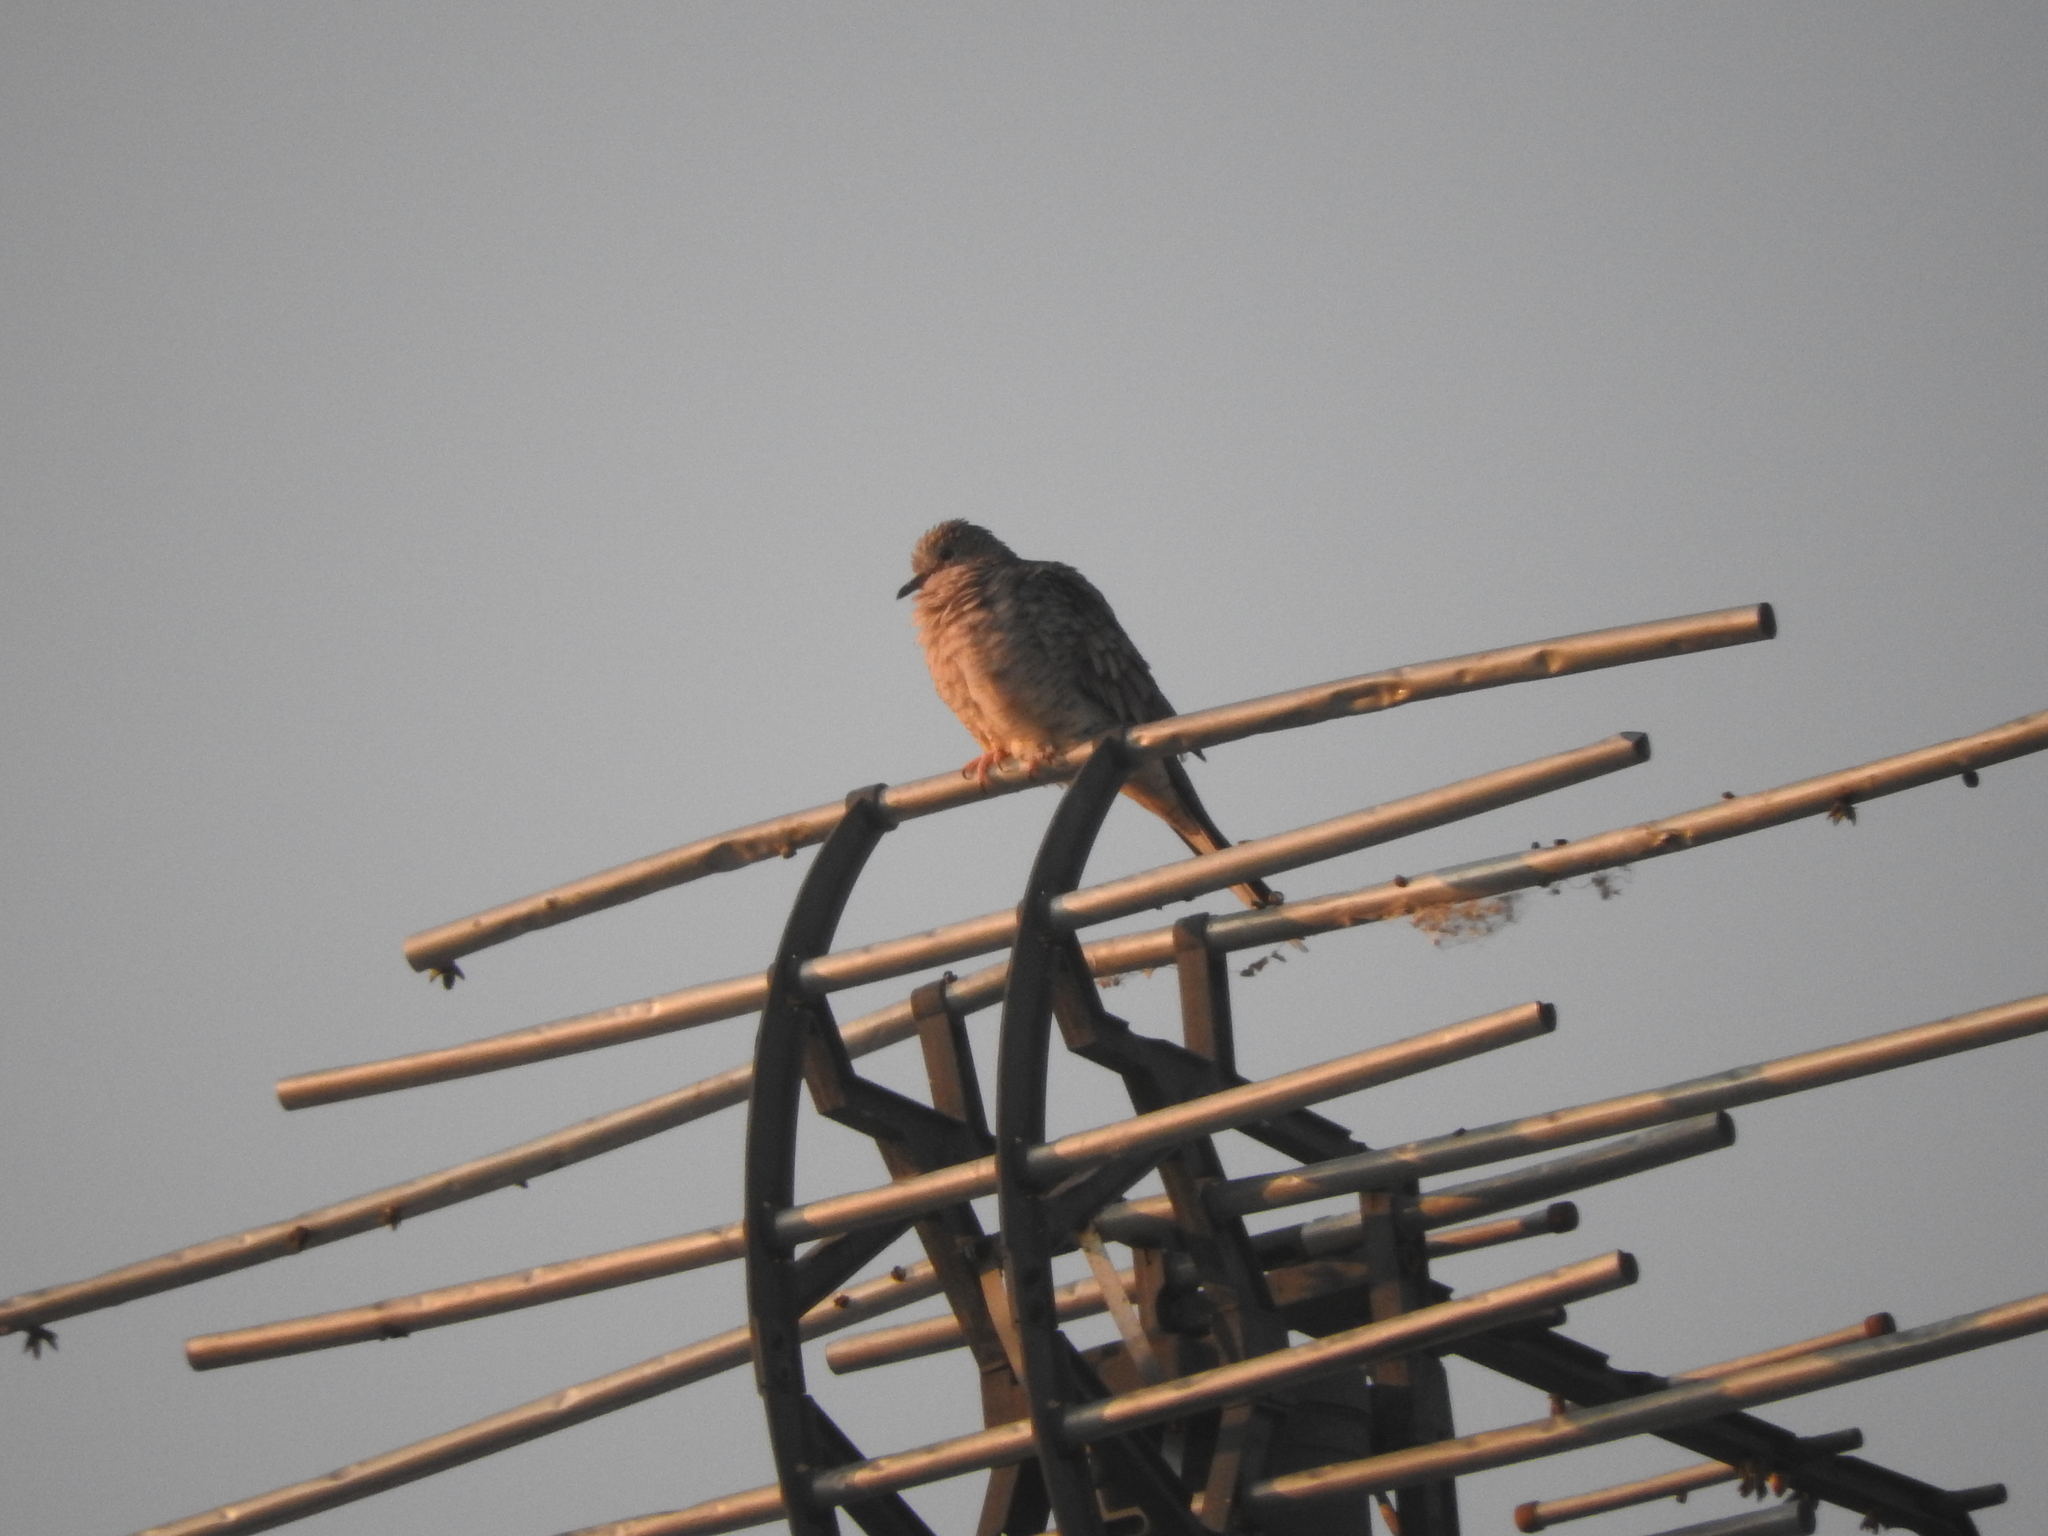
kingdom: Animalia
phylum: Chordata
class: Aves
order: Columbiformes
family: Columbidae
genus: Columbina
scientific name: Columbina inca
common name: Inca dove
